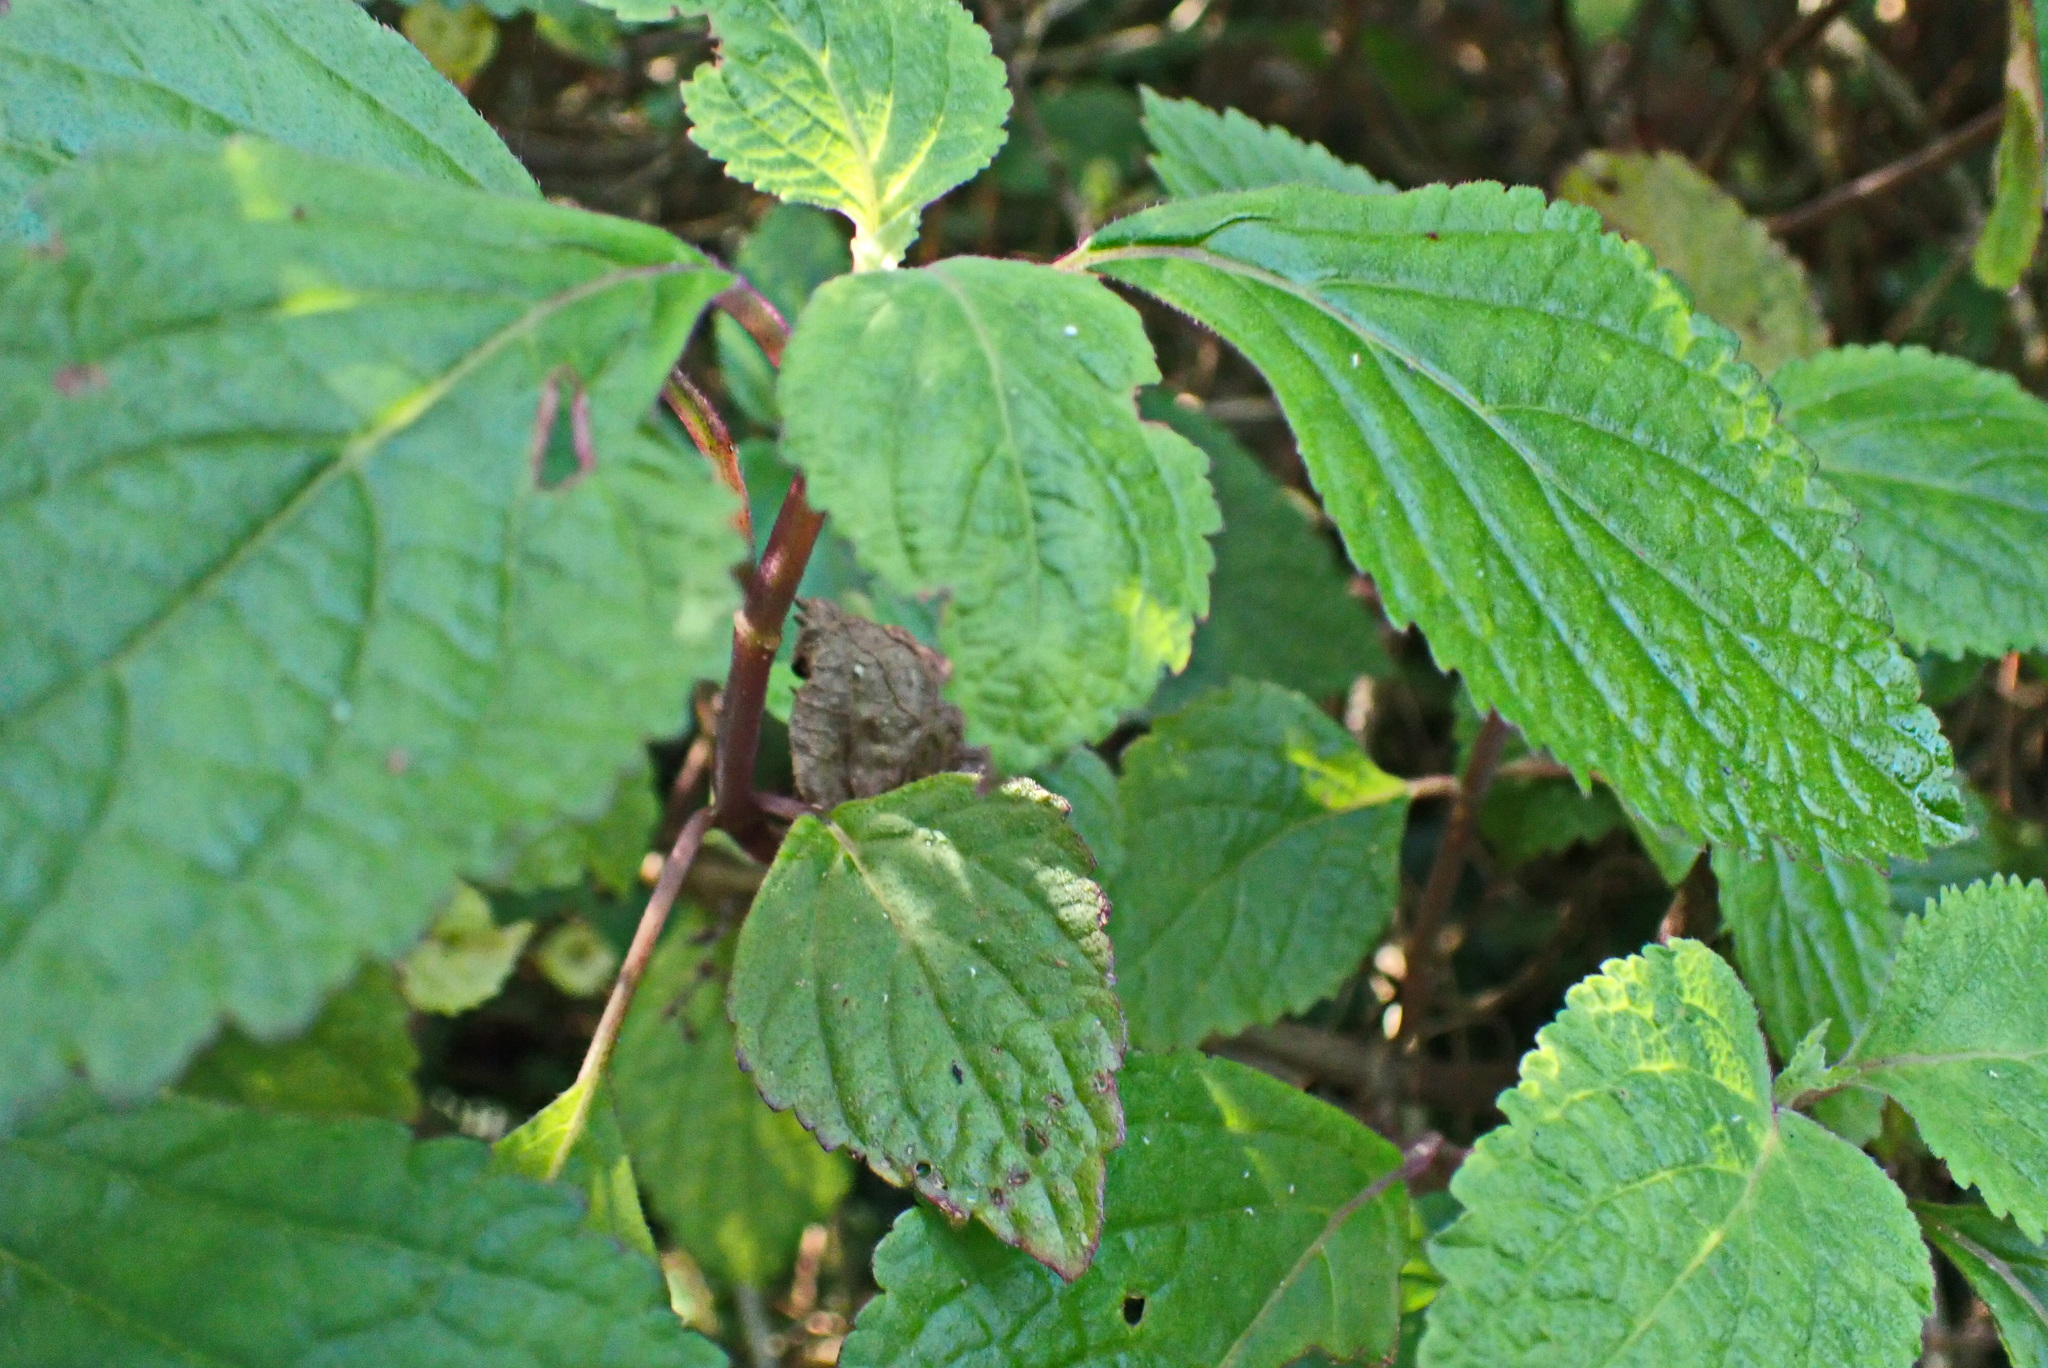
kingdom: Plantae
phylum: Tracheophyta
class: Magnoliopsida
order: Lamiales
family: Lamiaceae
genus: Plectranthus
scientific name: Plectranthus fruticosus
